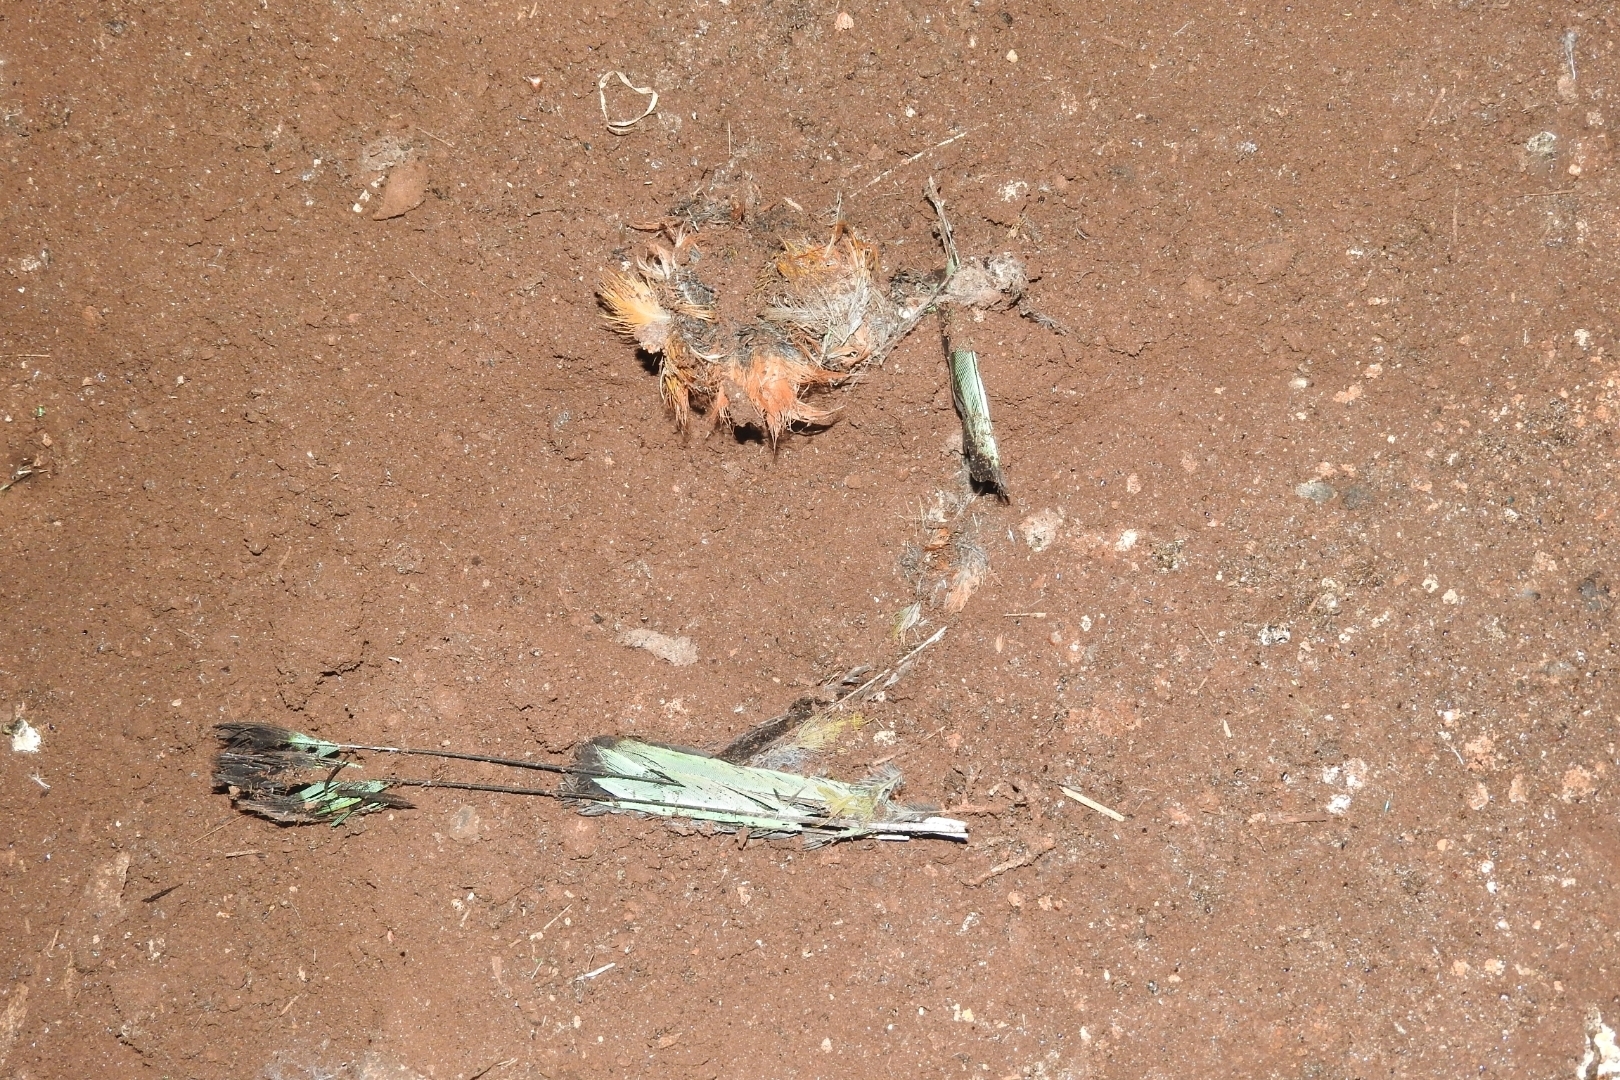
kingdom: Animalia
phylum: Chordata
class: Aves
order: Coraciiformes
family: Momotidae
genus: Eumomota
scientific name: Eumomota superciliosa
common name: Turquoise-browed motmot
